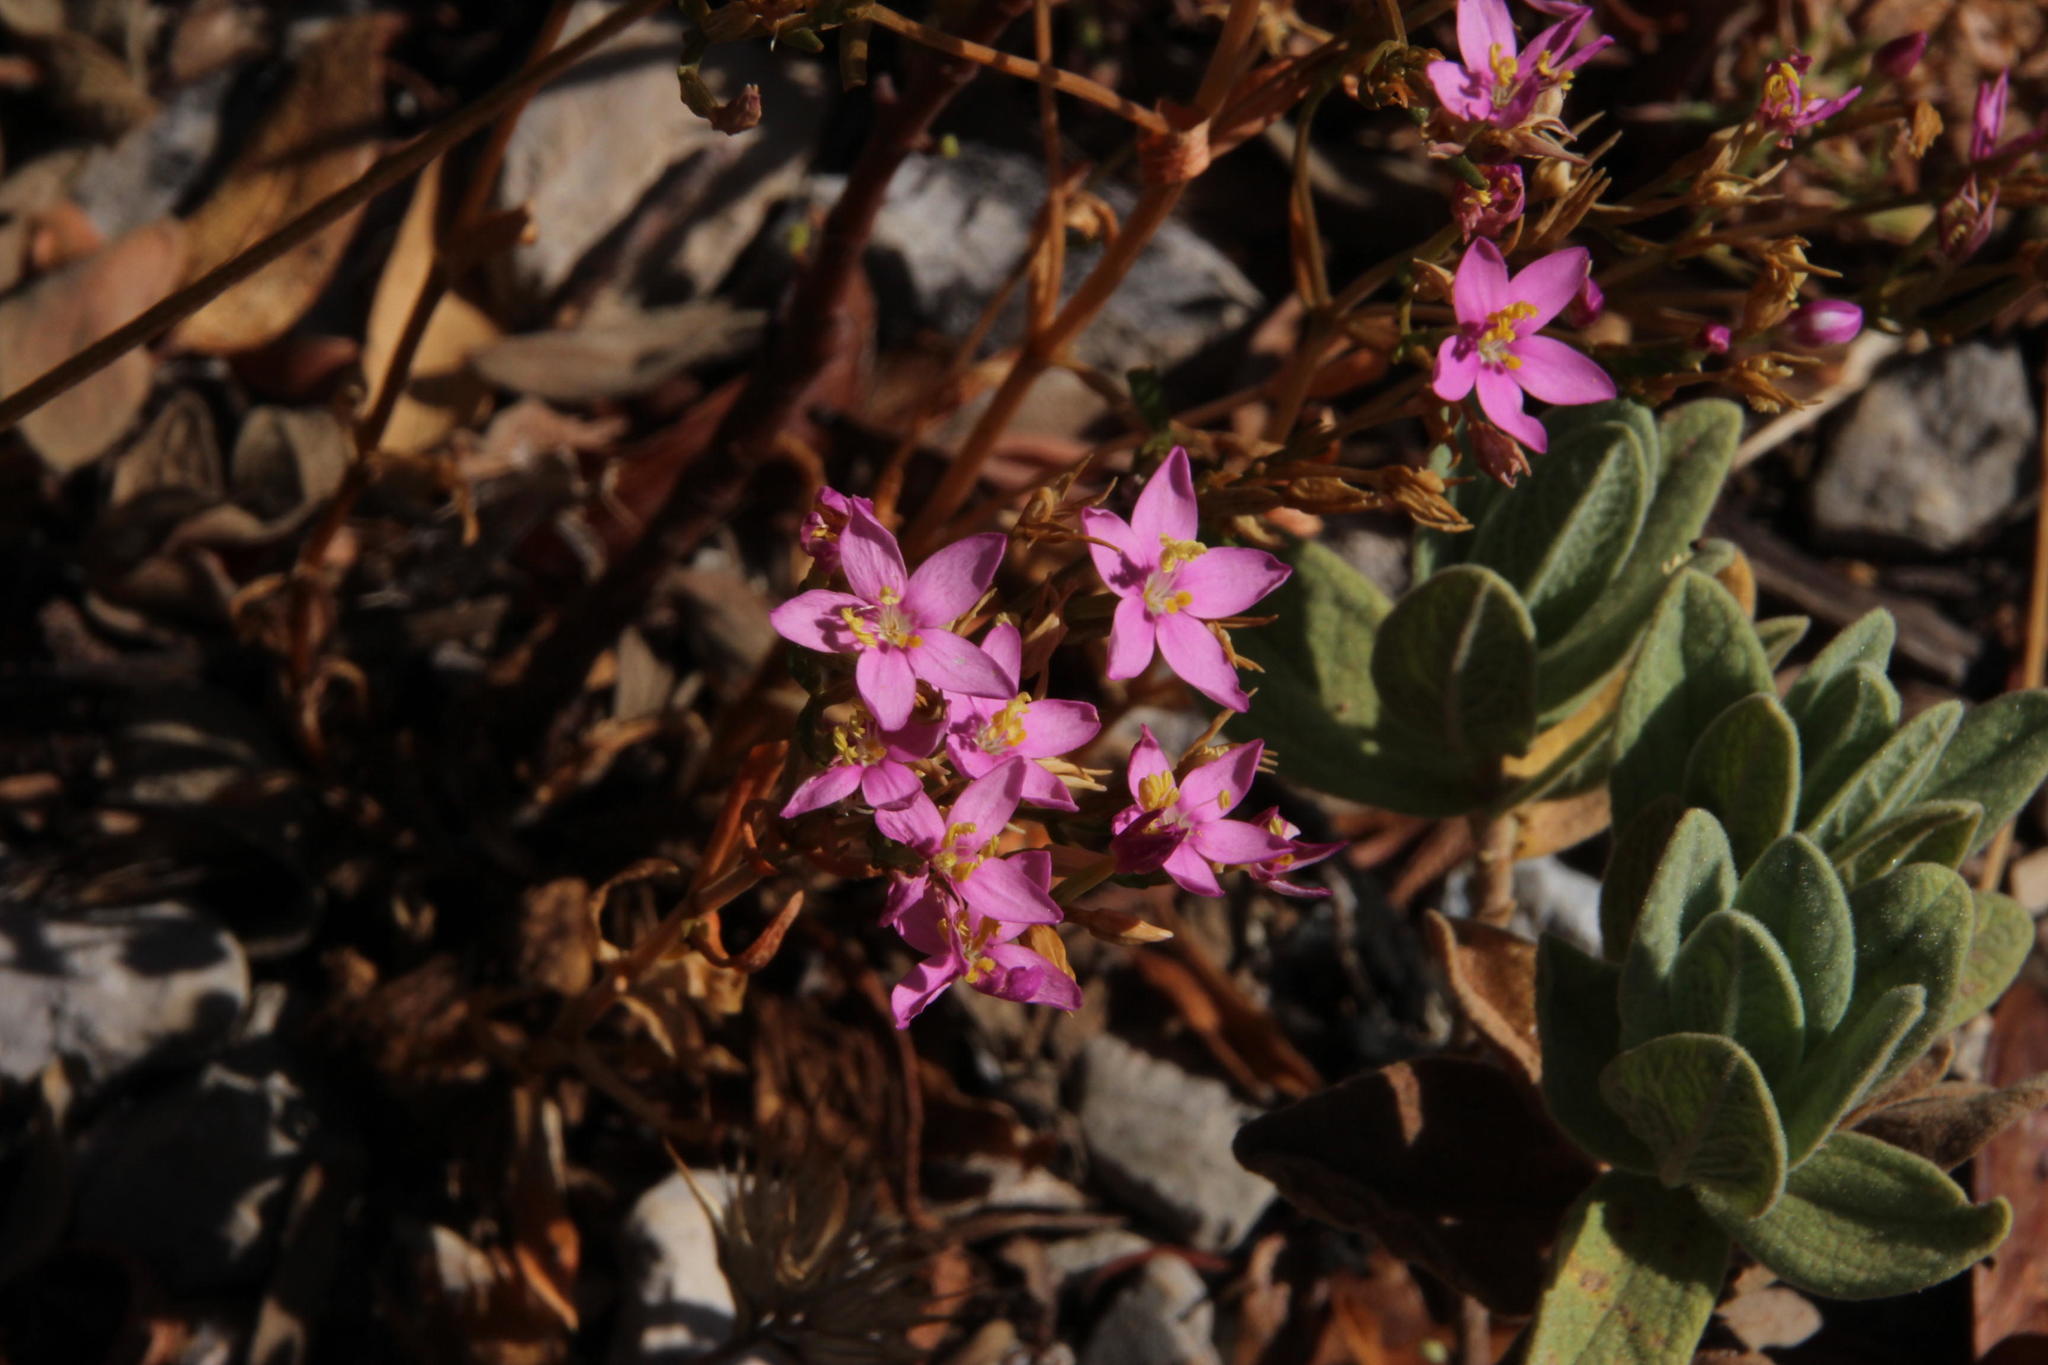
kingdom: Plantae
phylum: Tracheophyta
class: Magnoliopsida
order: Gentianales
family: Gentianaceae
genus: Centaurium
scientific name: Centaurium erythraea
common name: Common centaury
